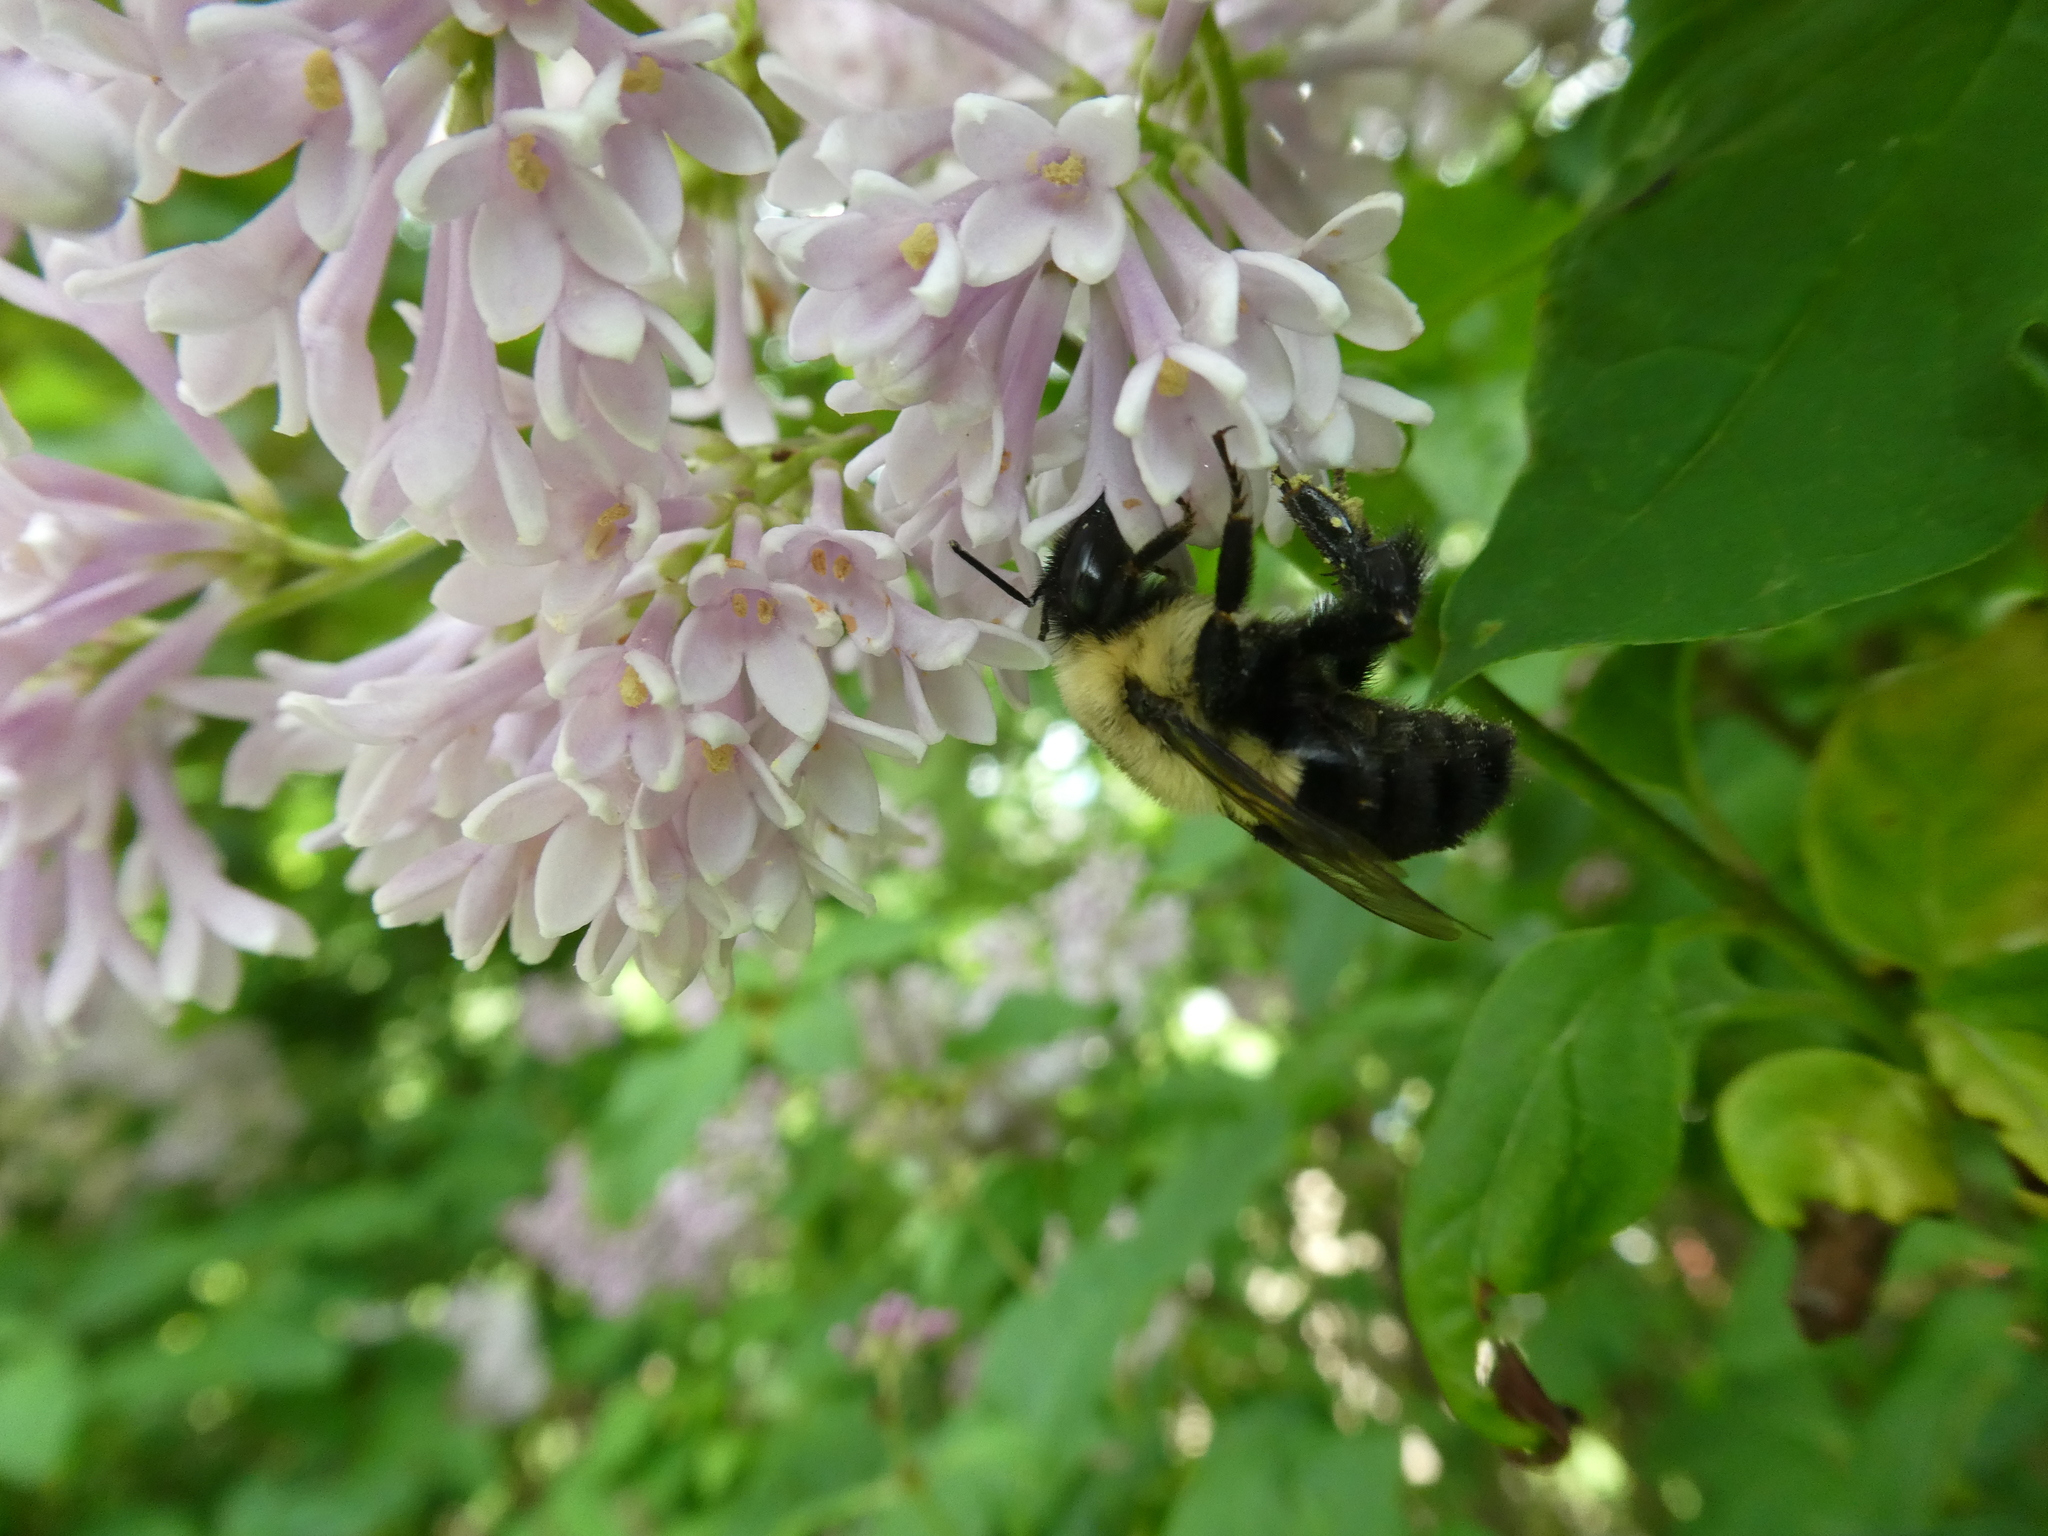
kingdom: Animalia
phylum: Arthropoda
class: Insecta
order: Hymenoptera
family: Apidae
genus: Bombus
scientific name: Bombus impatiens
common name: Common eastern bumble bee
